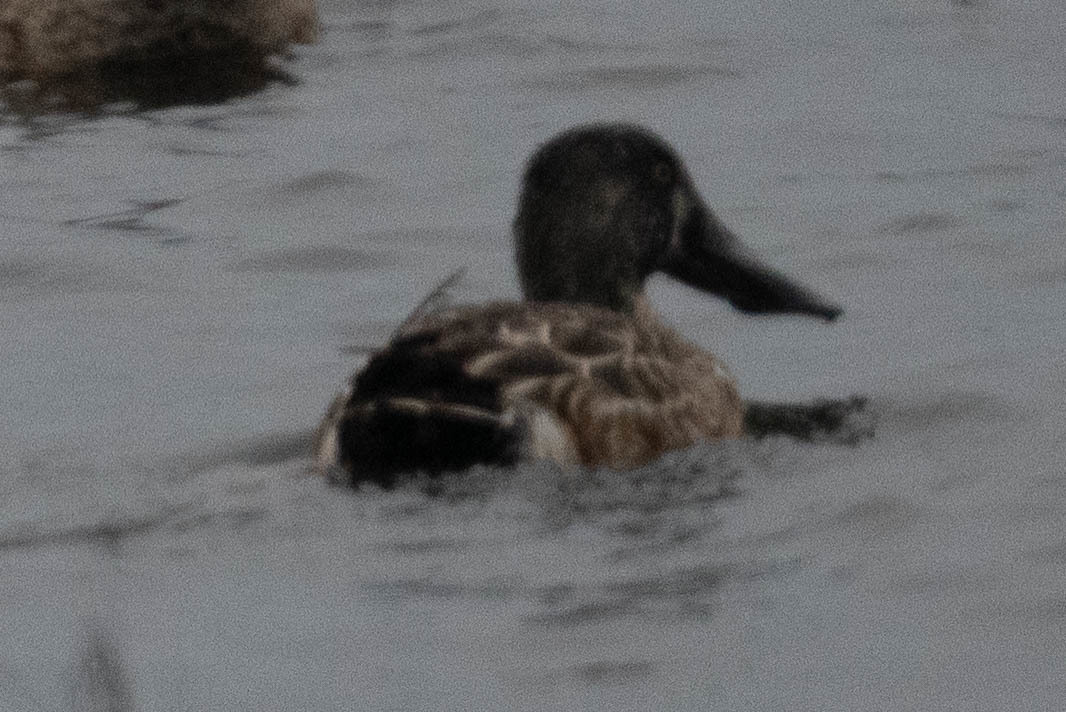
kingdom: Animalia
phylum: Chordata
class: Aves
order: Anseriformes
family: Anatidae
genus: Spatula
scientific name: Spatula clypeata
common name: Northern shoveler
